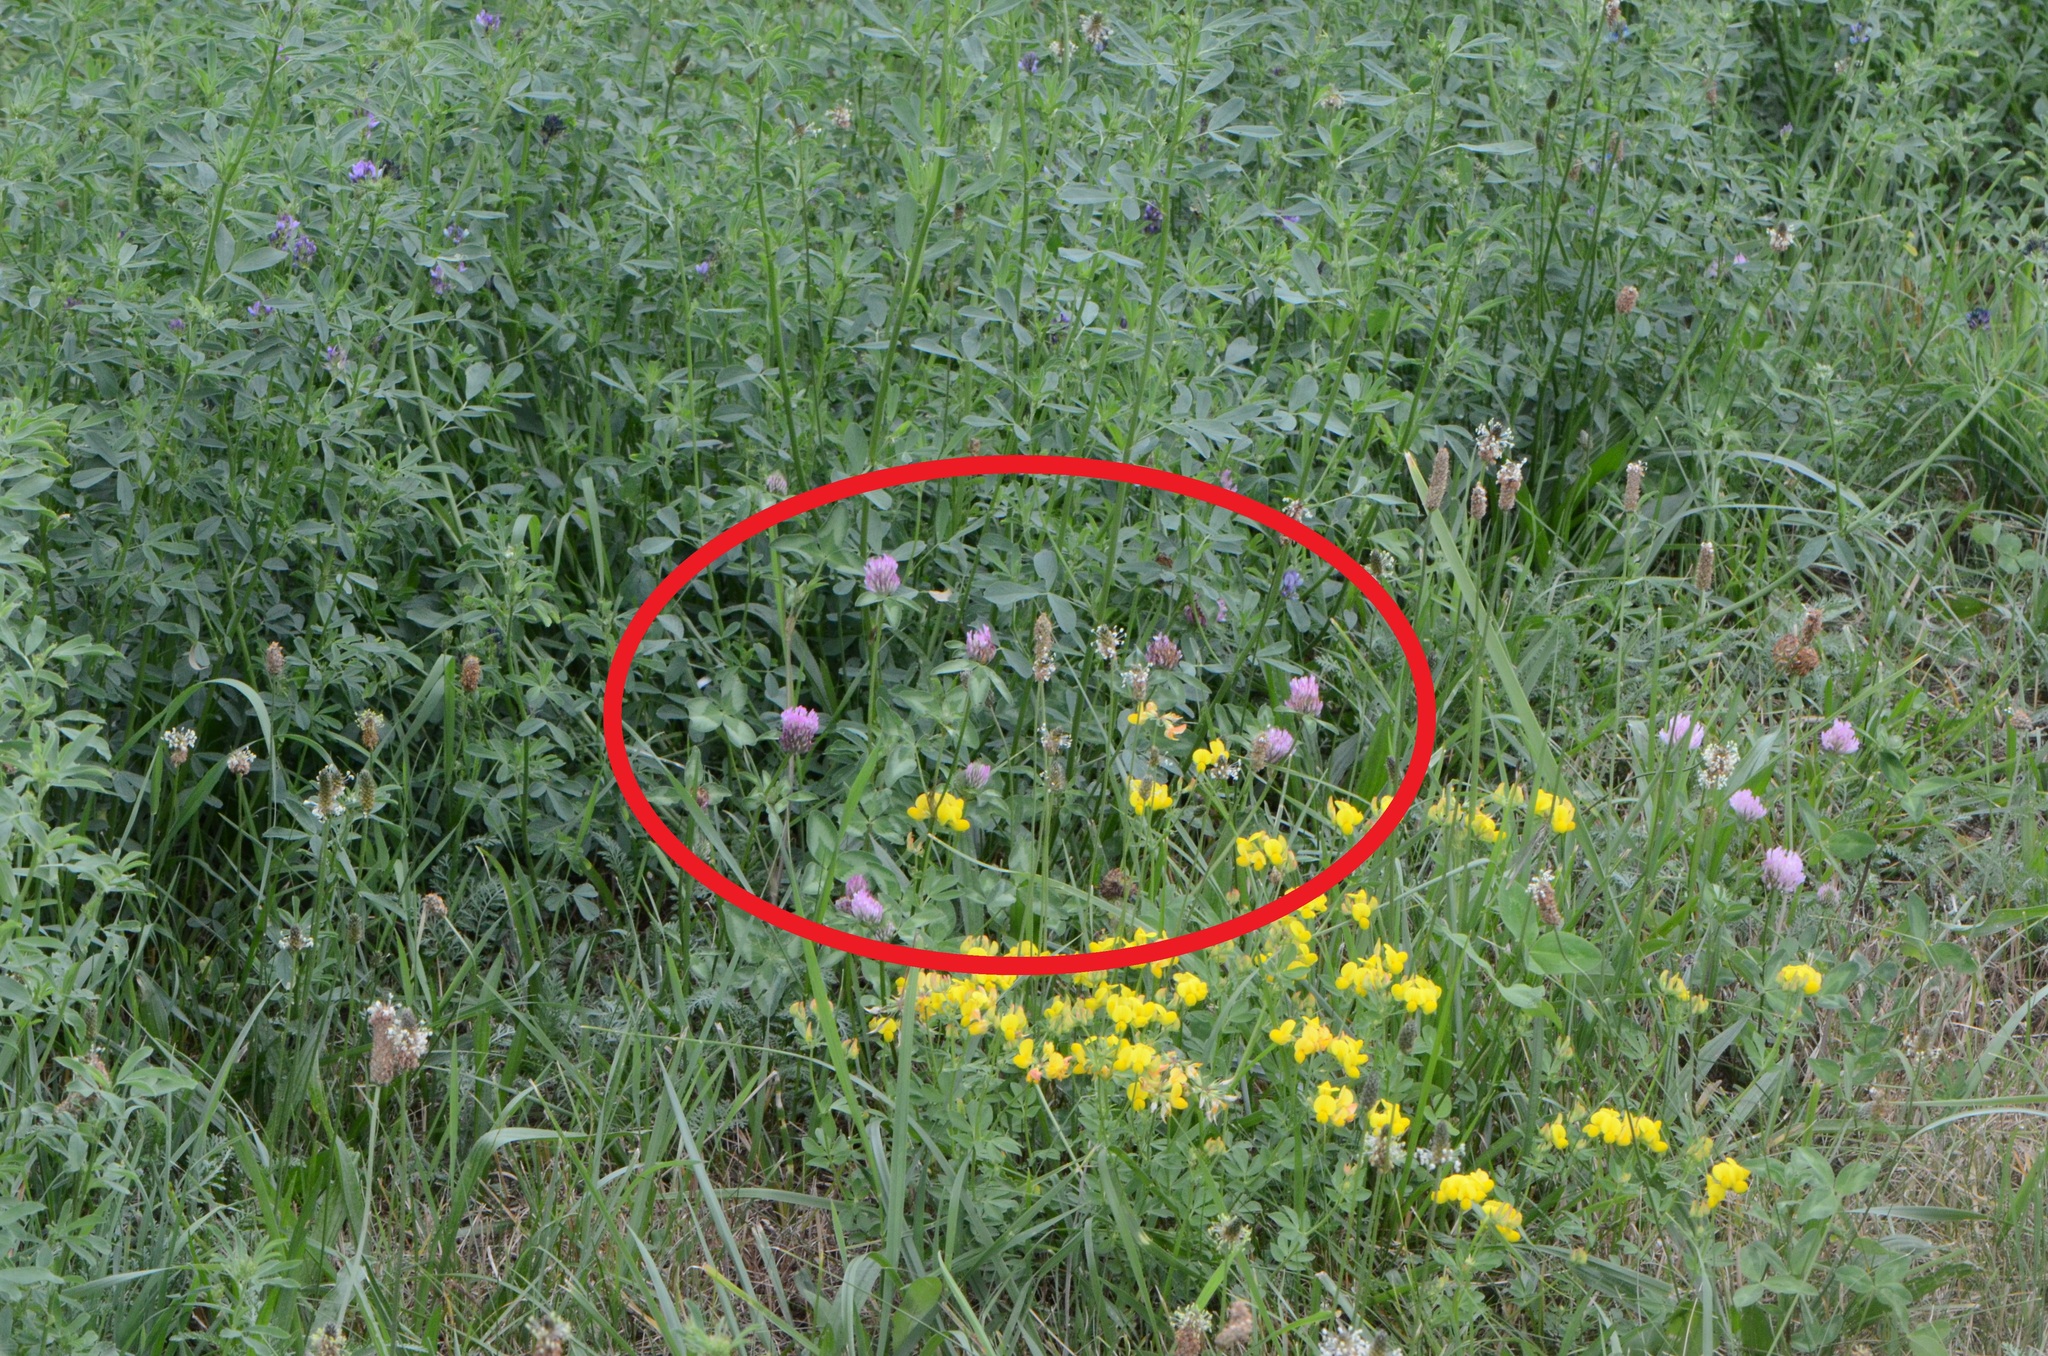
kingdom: Plantae
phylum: Tracheophyta
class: Magnoliopsida
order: Fabales
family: Fabaceae
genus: Trifolium
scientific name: Trifolium pratense
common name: Red clover
